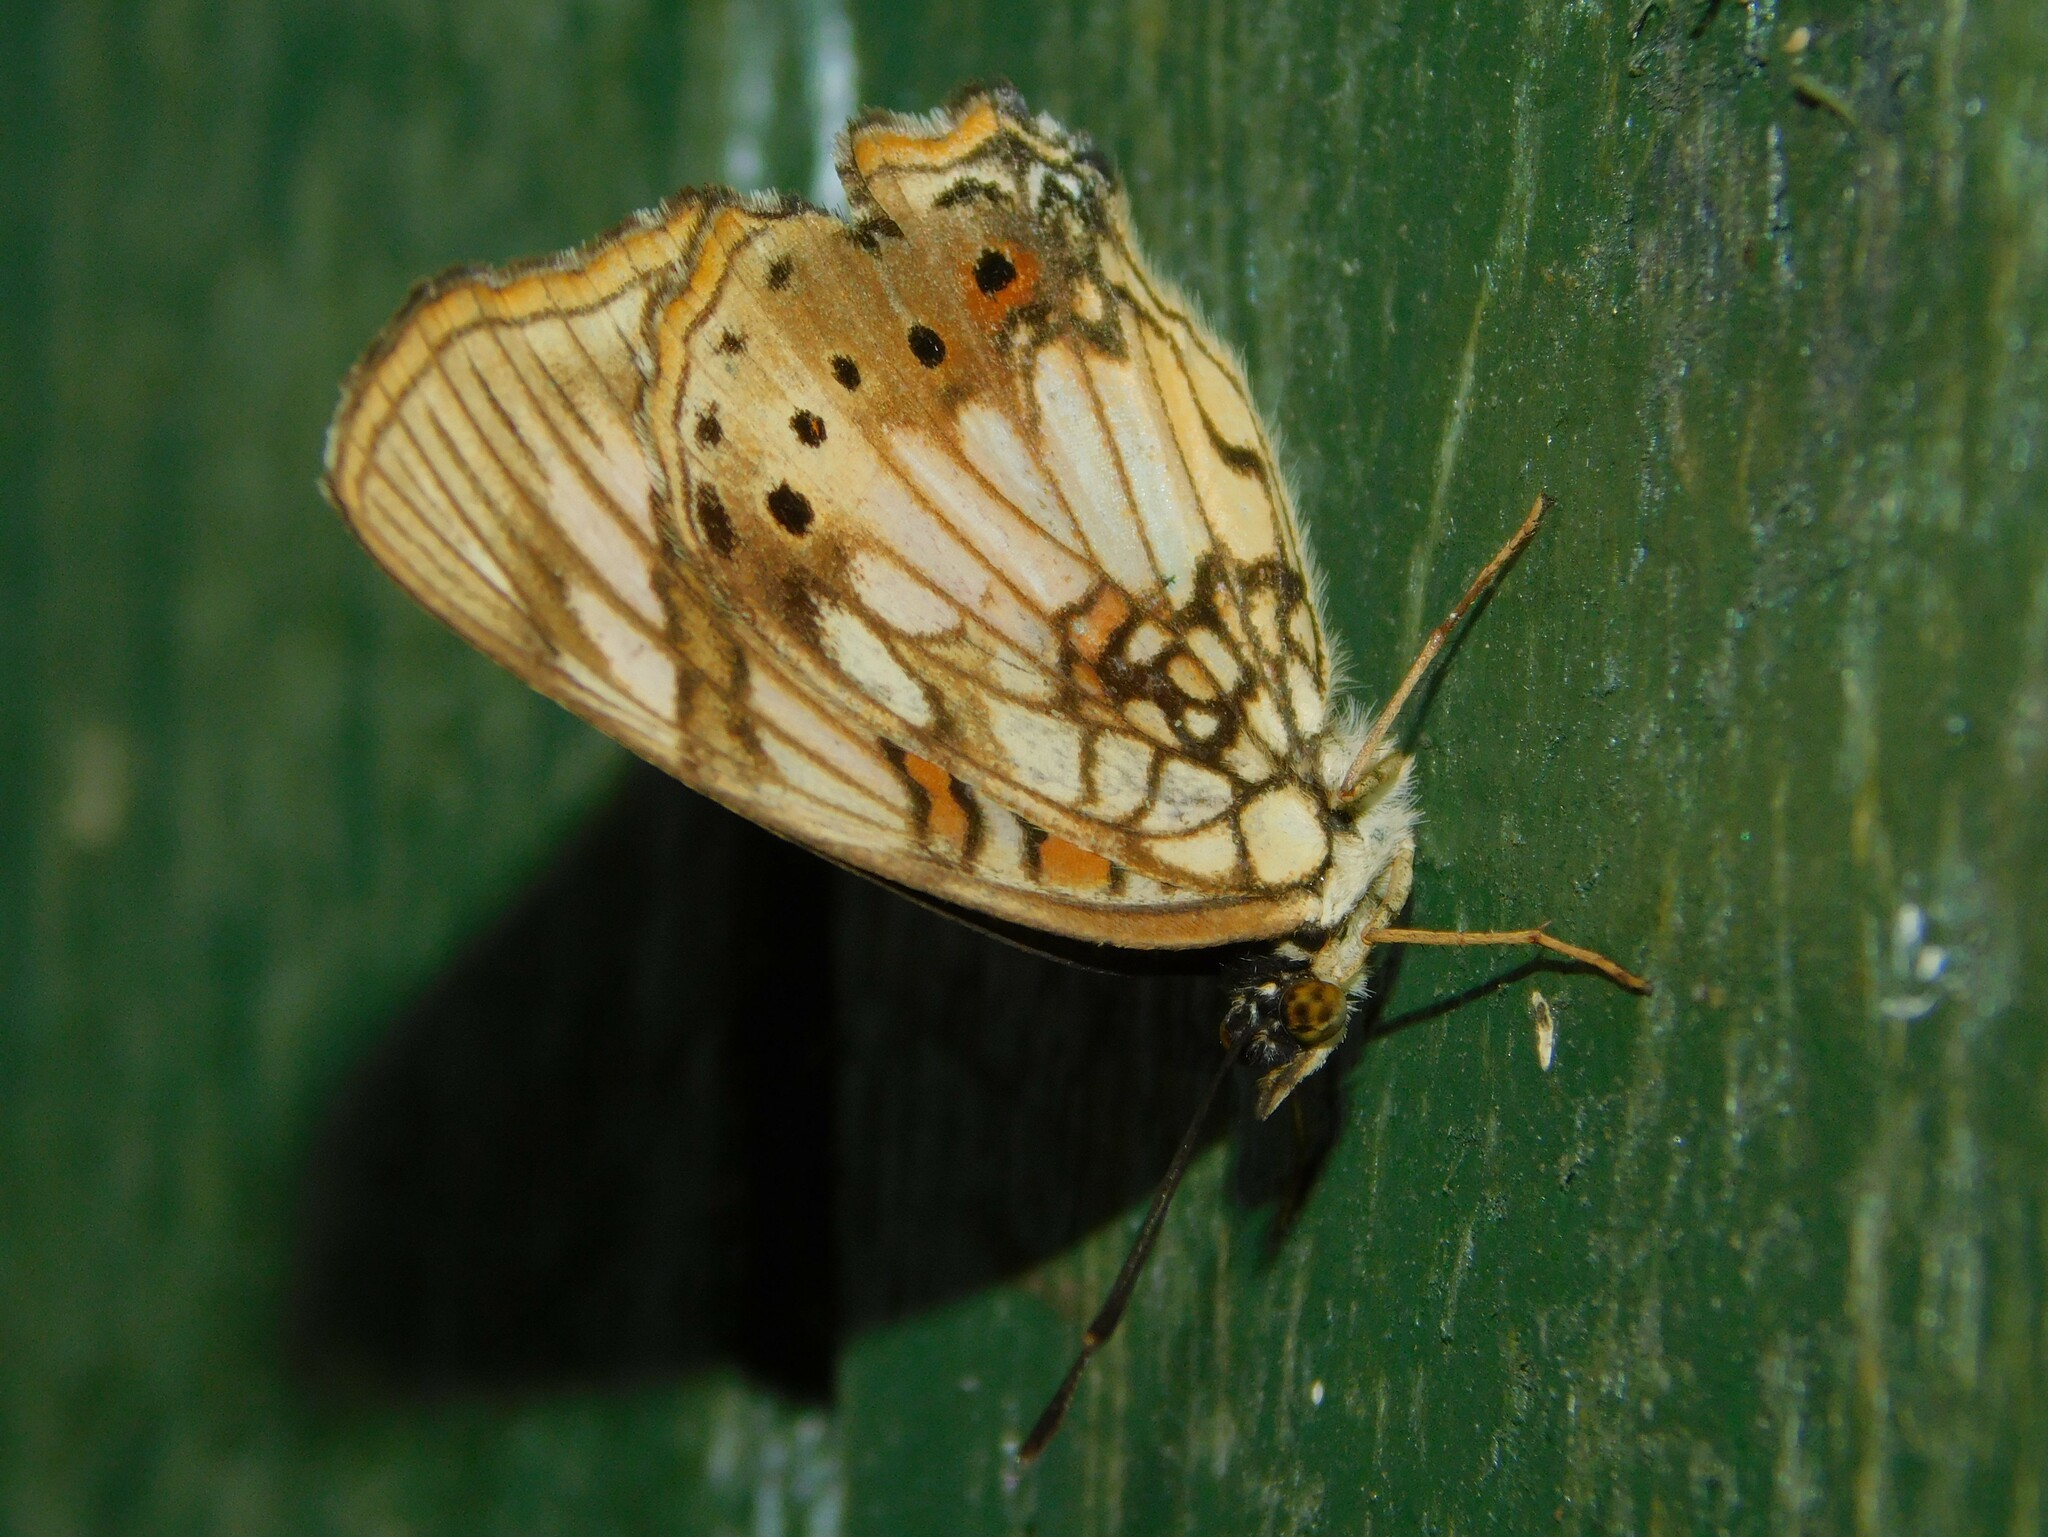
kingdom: Animalia
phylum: Arthropoda
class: Insecta
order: Lepidoptera
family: Nymphalidae
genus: Junonia
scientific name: Junonia sophia
